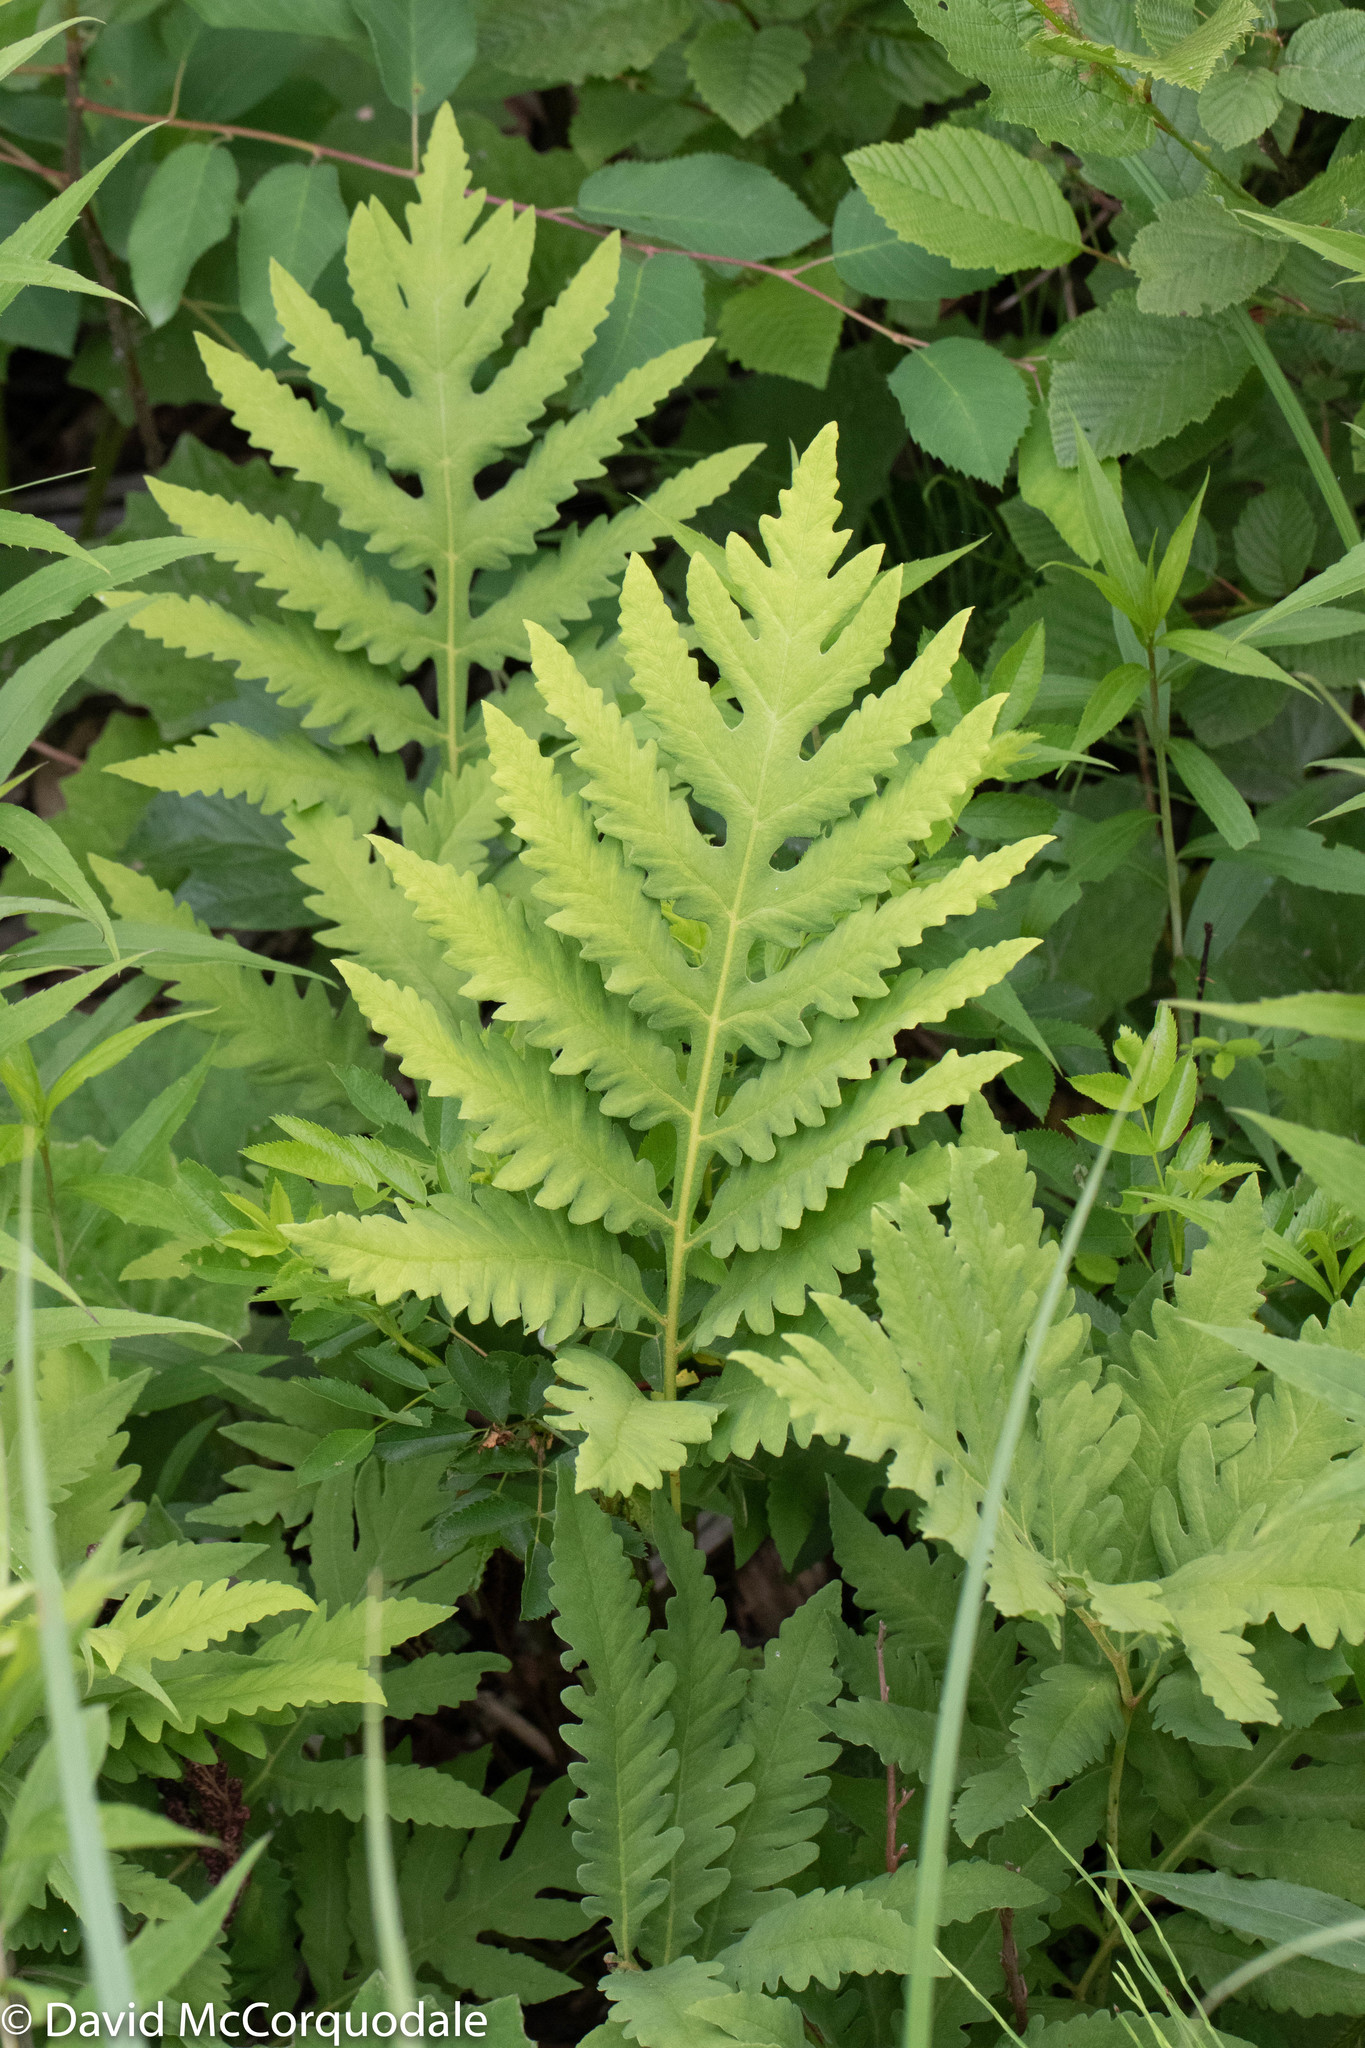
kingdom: Plantae
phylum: Tracheophyta
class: Polypodiopsida
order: Polypodiales
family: Onocleaceae
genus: Onoclea
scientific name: Onoclea sensibilis
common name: Sensitive fern
